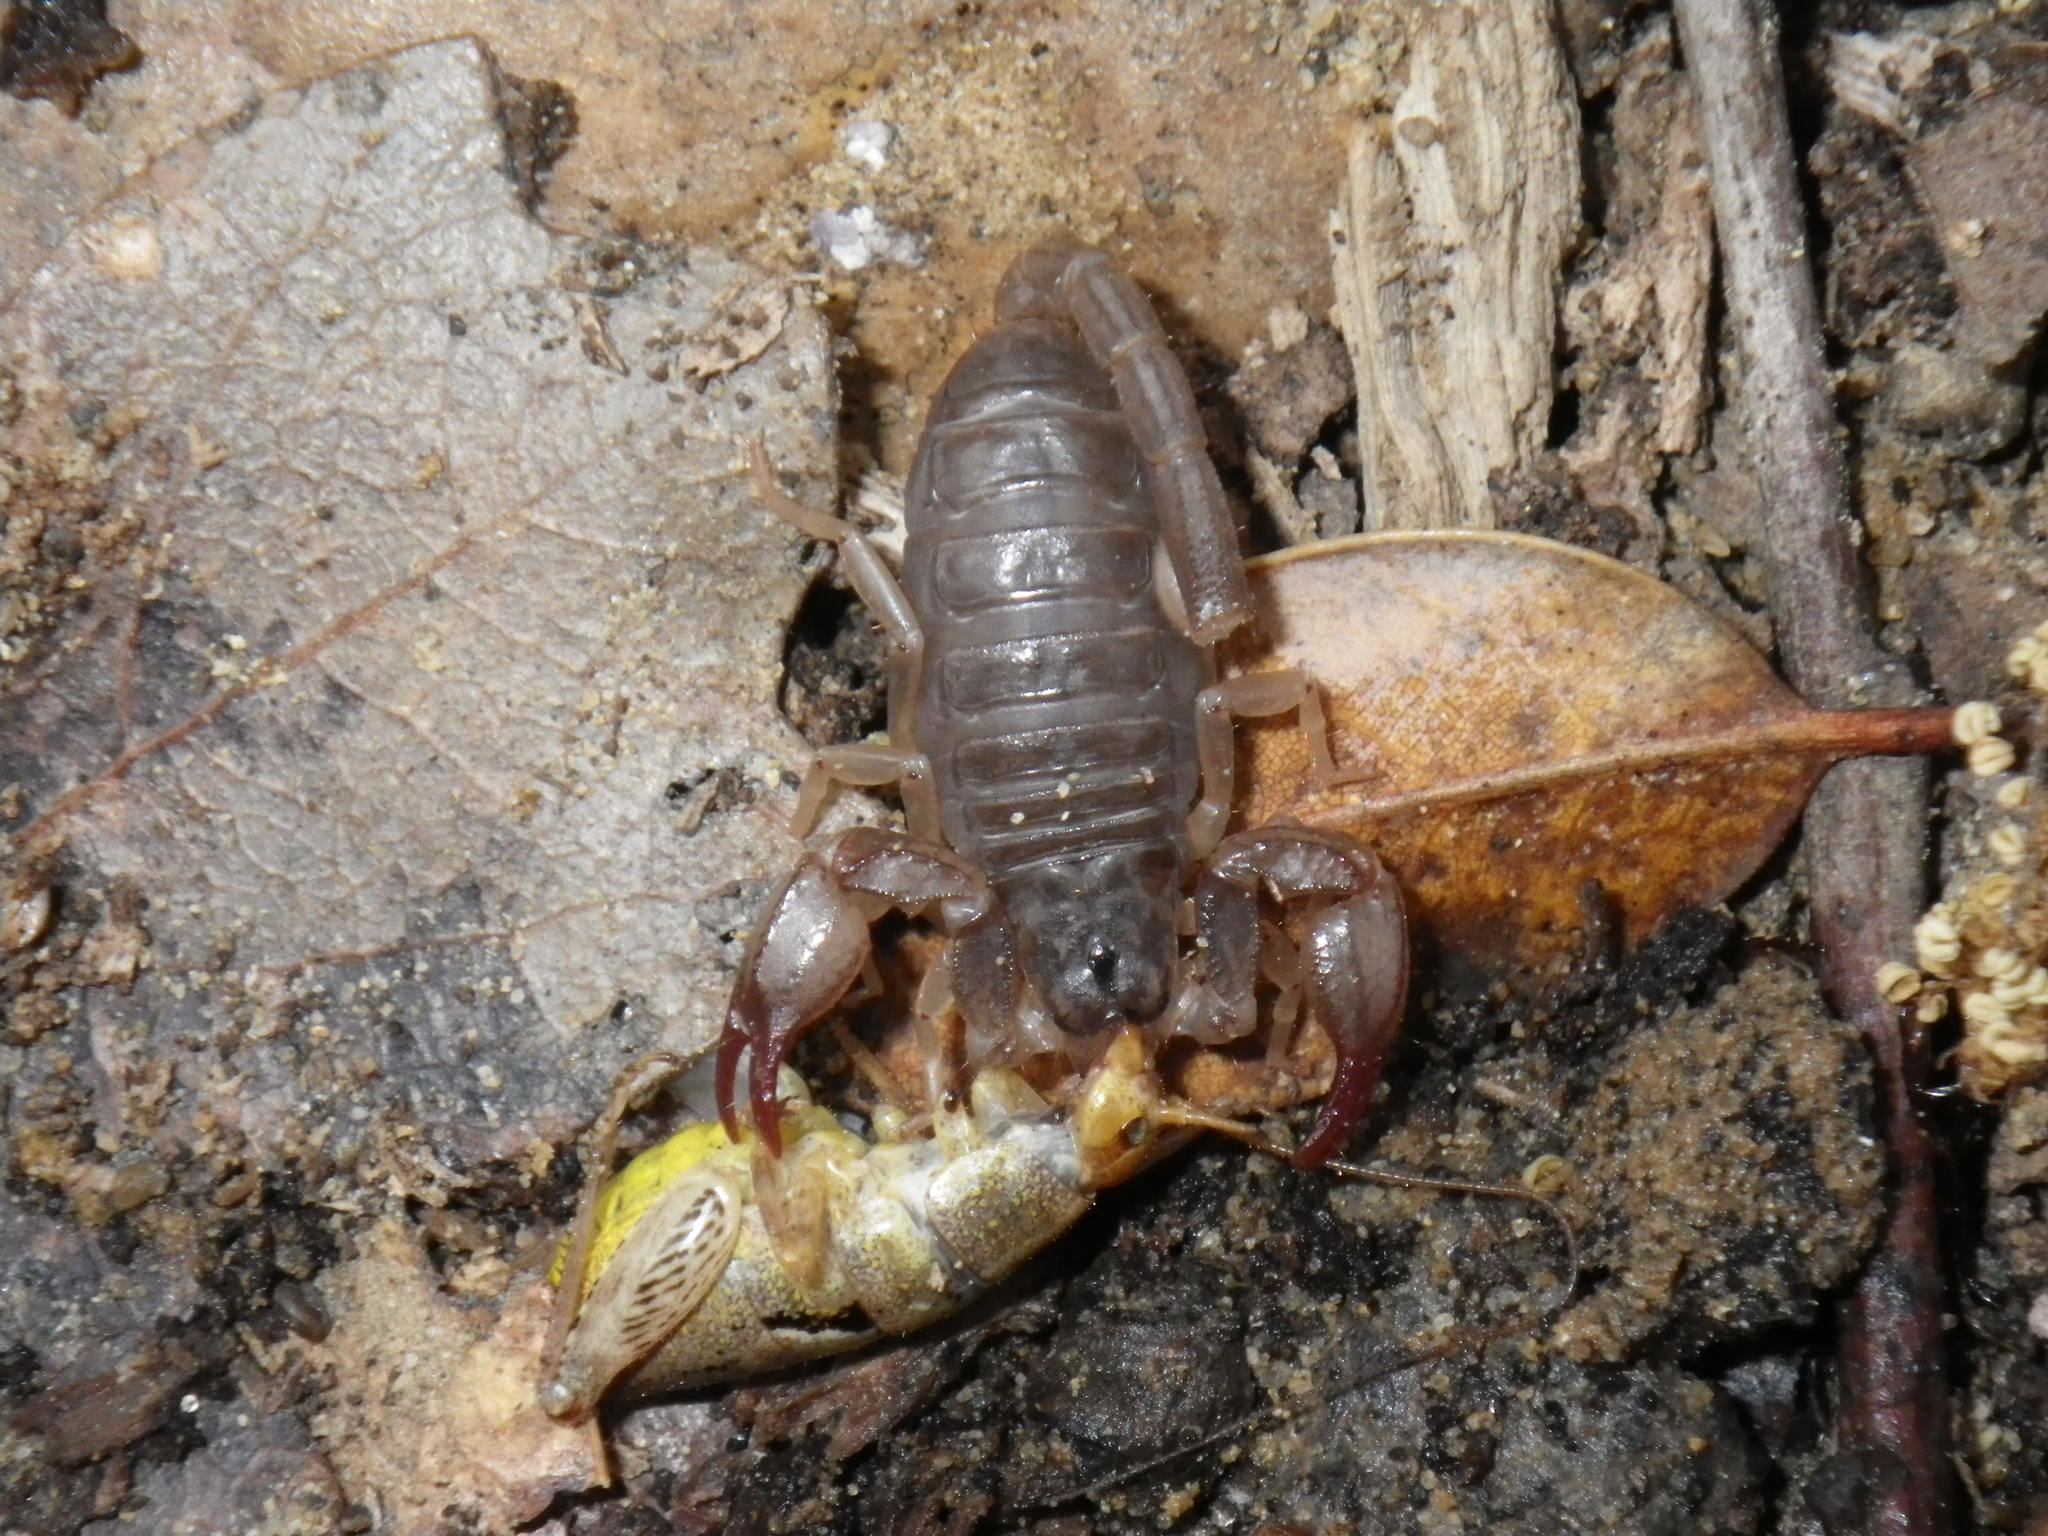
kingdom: Animalia
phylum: Arthropoda
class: Arachnida
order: Scorpiones
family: Chactidae
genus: Uroctonus
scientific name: Uroctonus mordax
